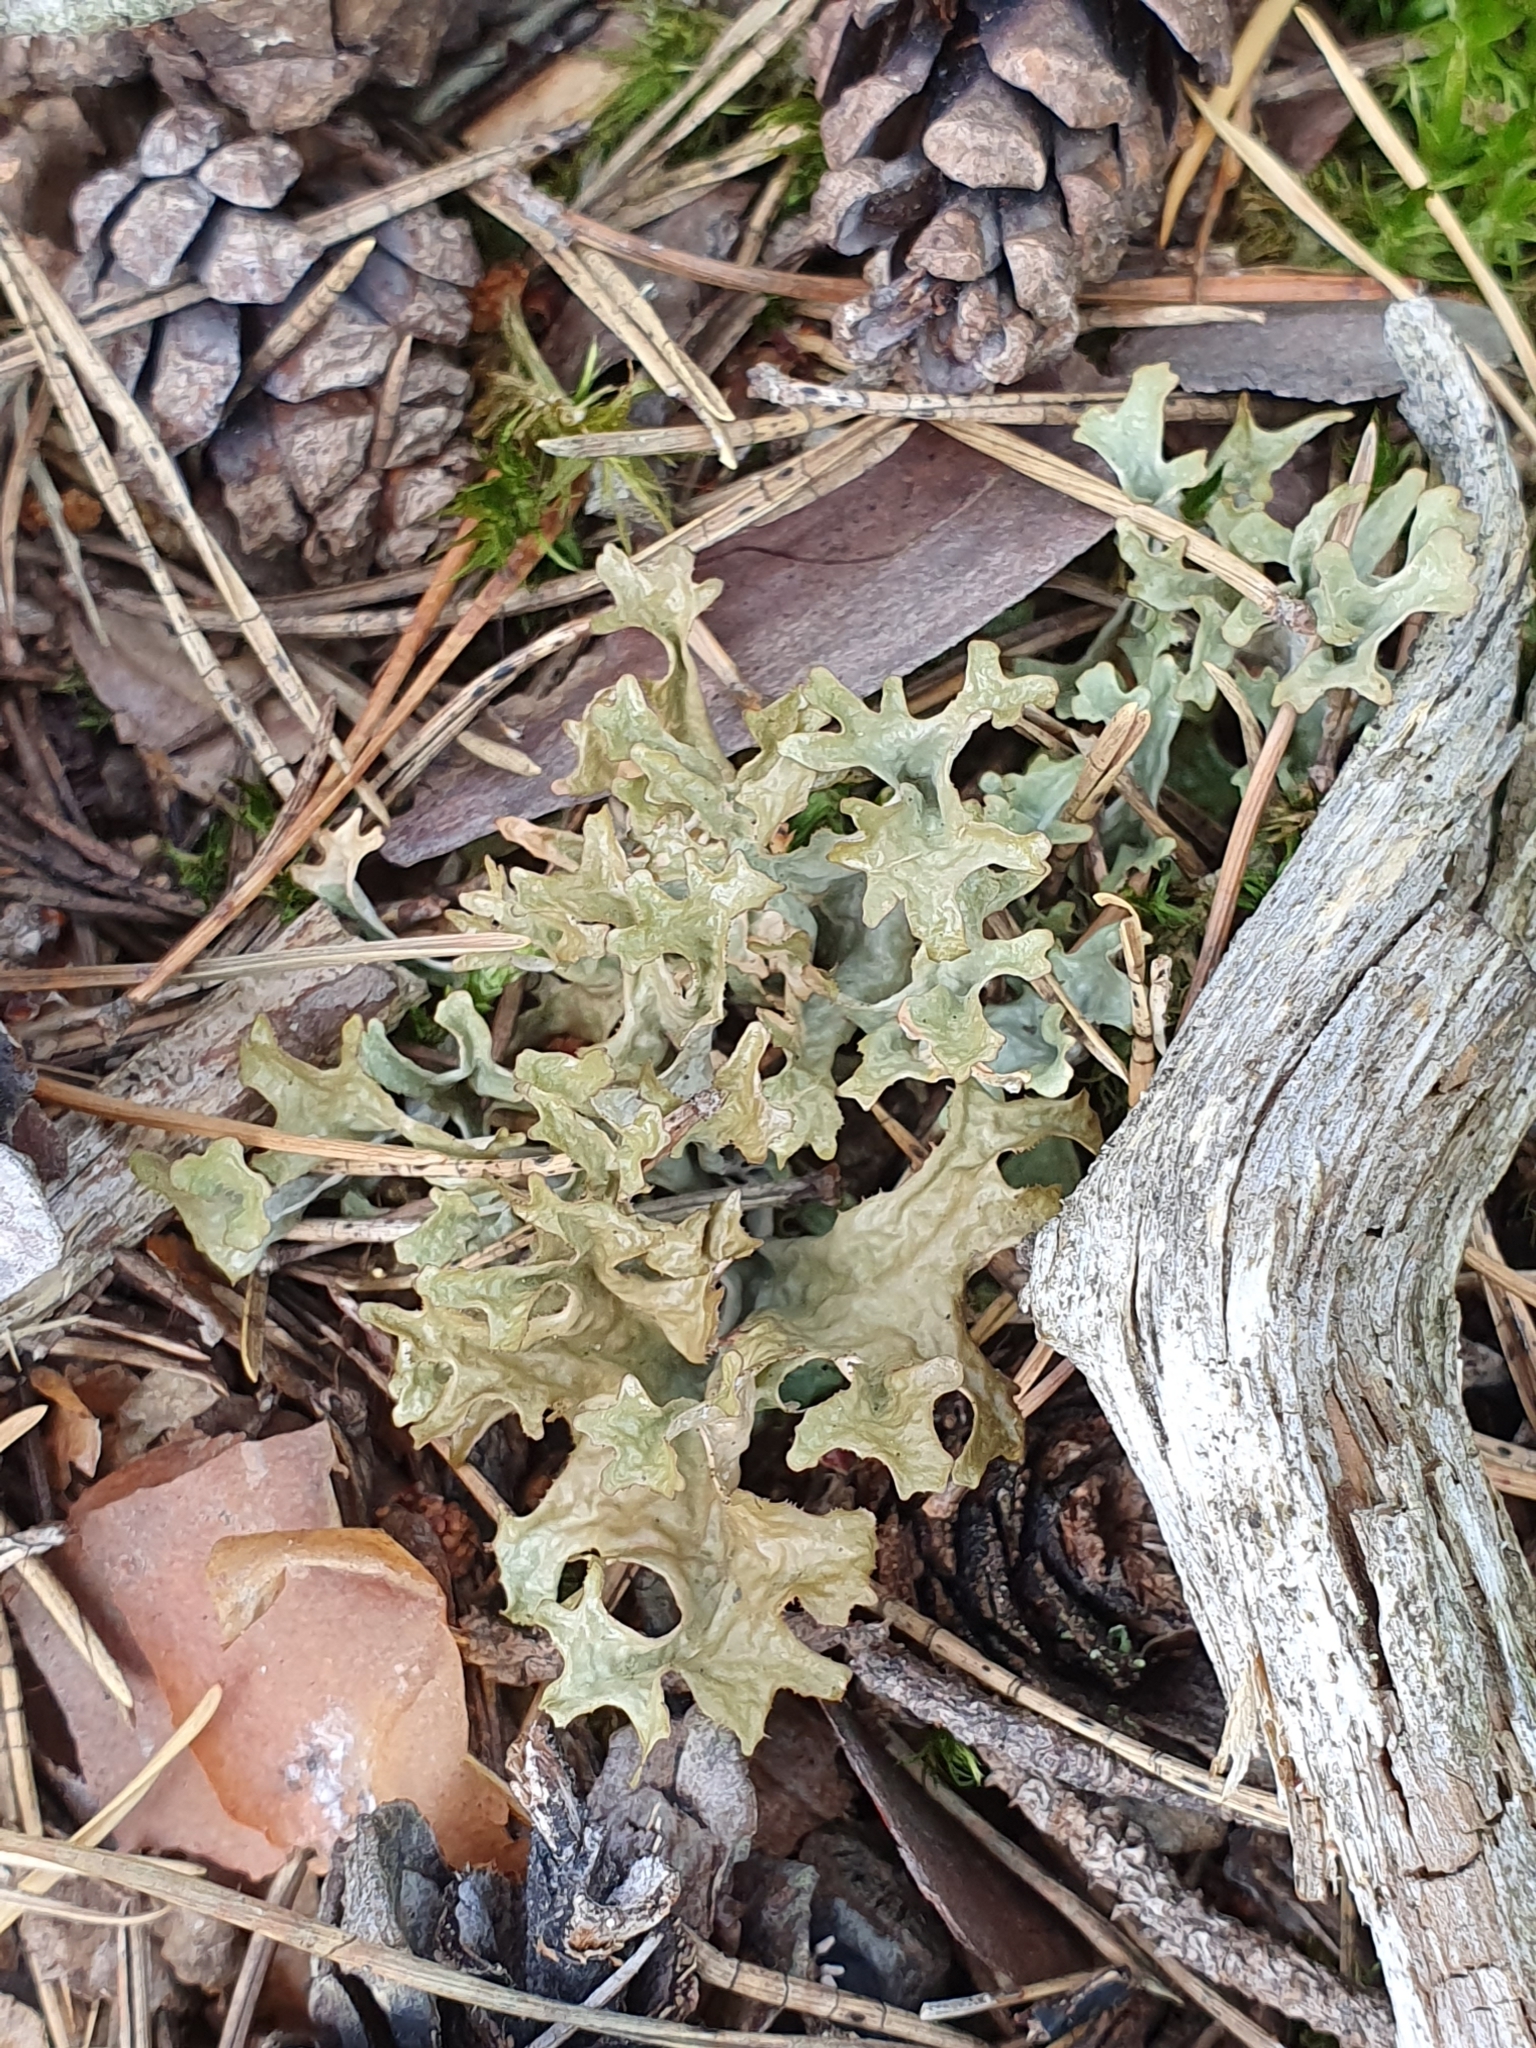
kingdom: Fungi
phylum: Ascomycota
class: Lecanoromycetes
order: Lecanorales
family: Parmeliaceae
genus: Cetraria
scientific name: Cetraria islandica
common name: Iceland lichen
